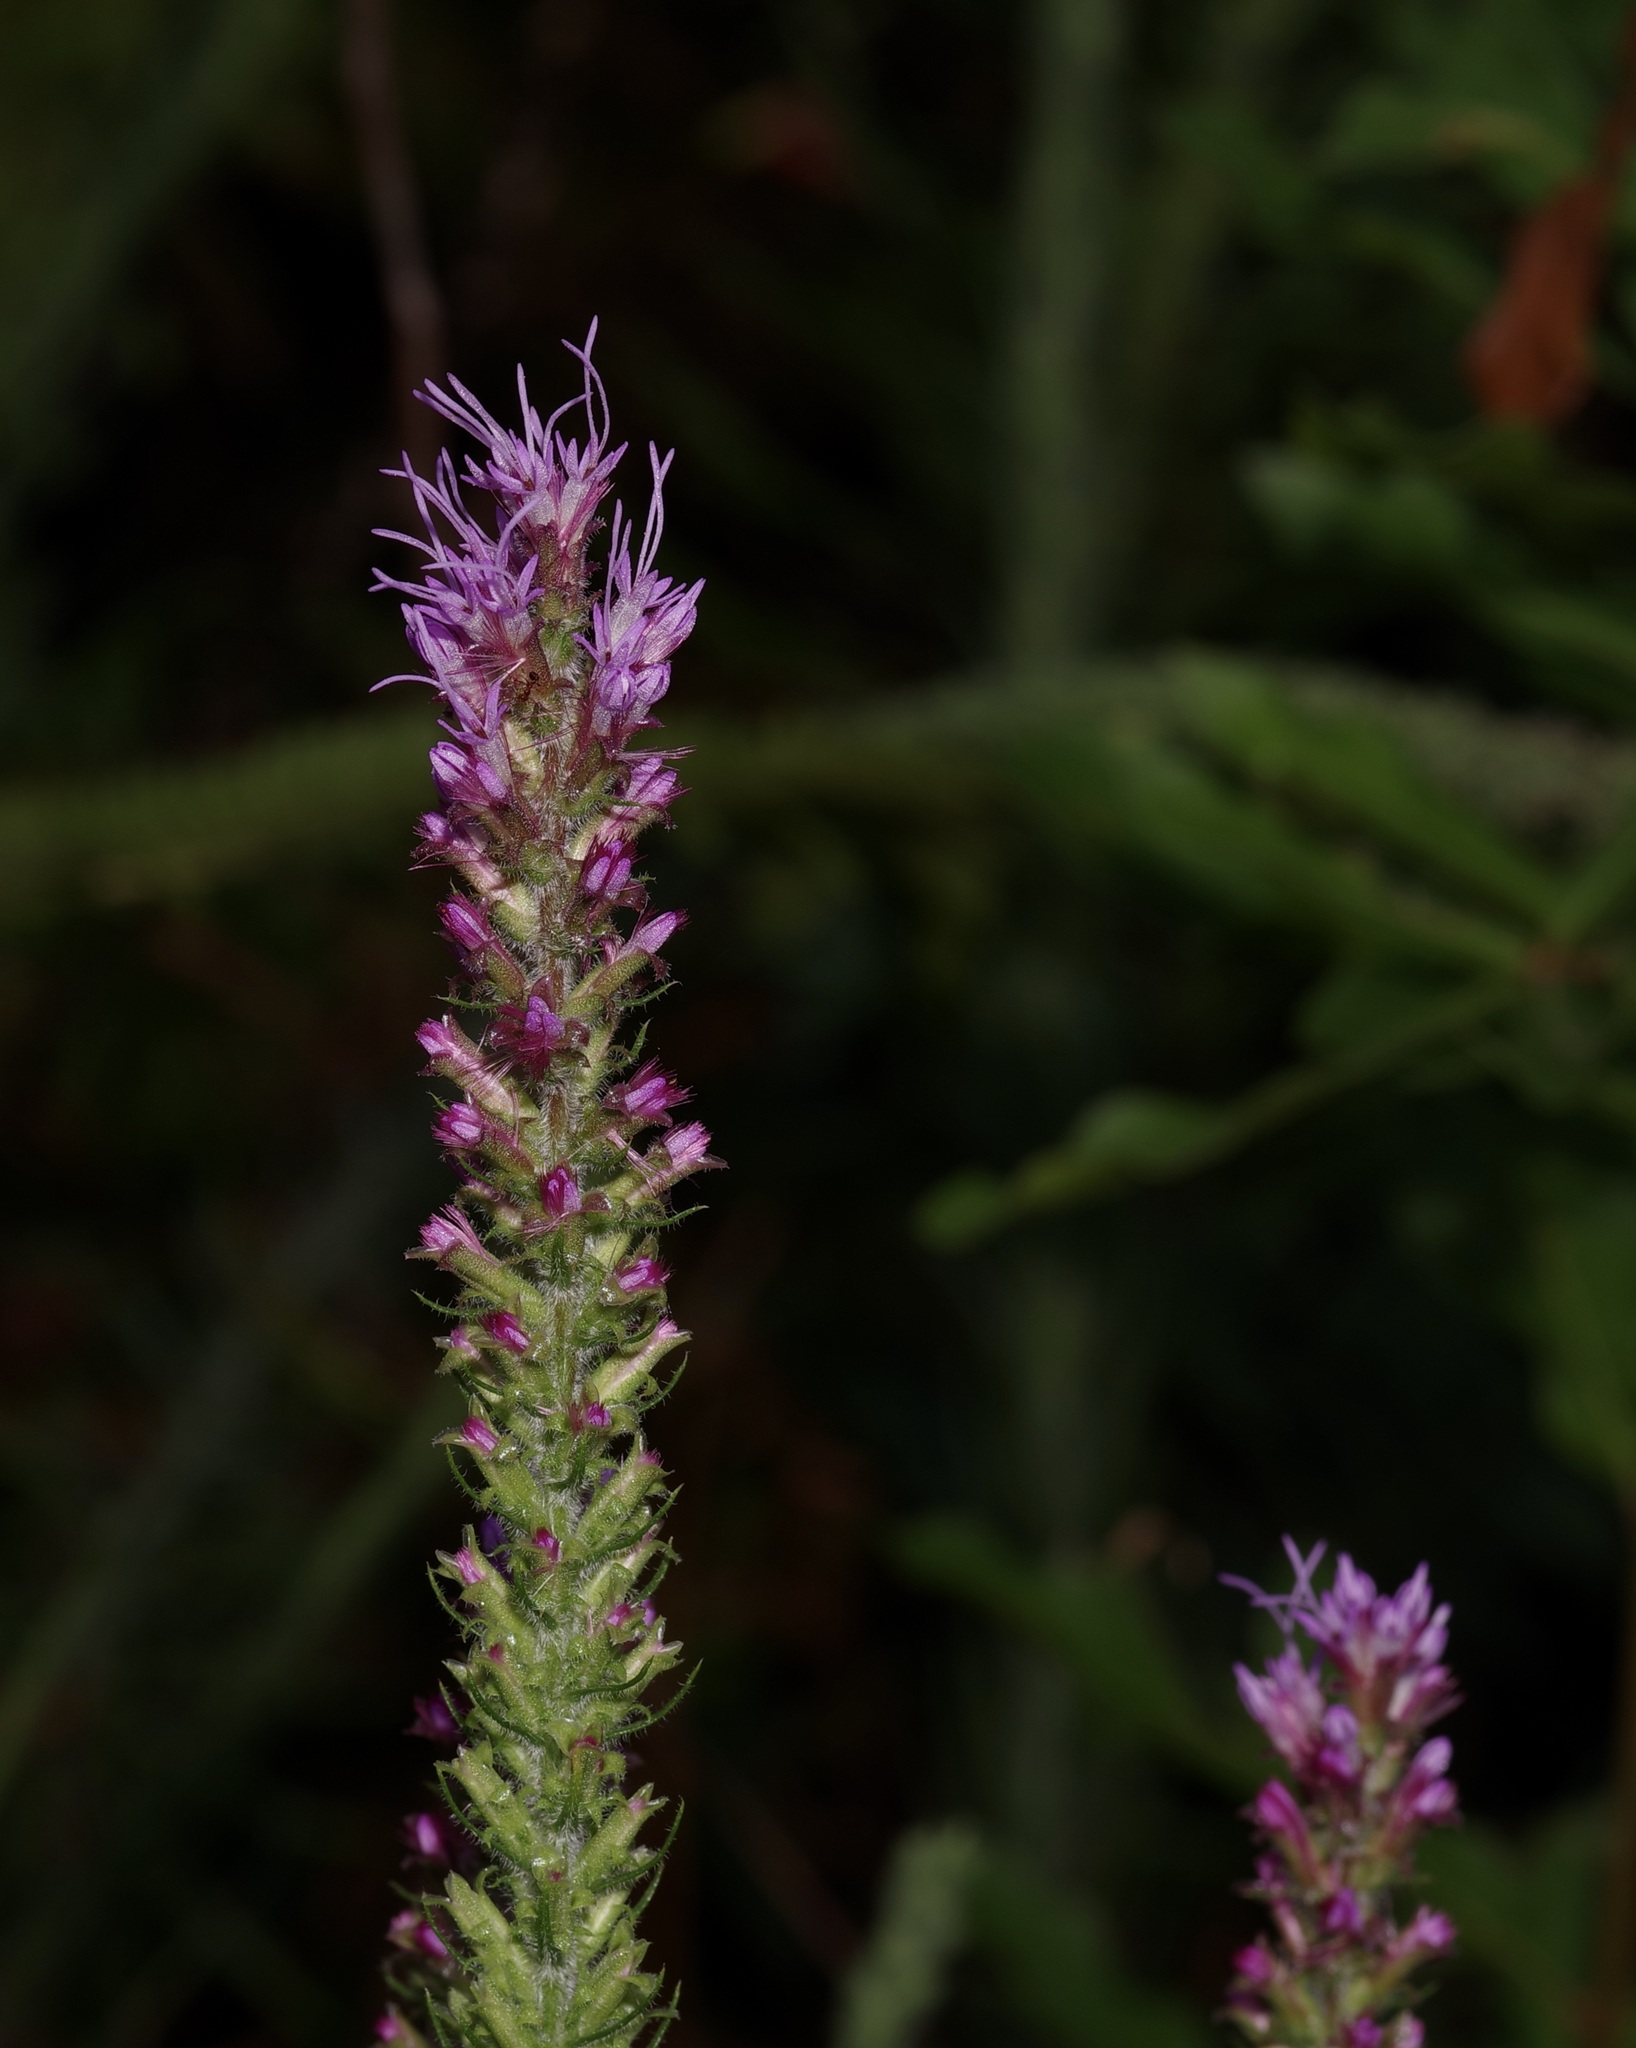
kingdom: Plantae
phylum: Tracheophyta
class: Magnoliopsida
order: Asterales
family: Asteraceae
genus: Liatris
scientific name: Liatris pycnostachya
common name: Cattail gayfeather
